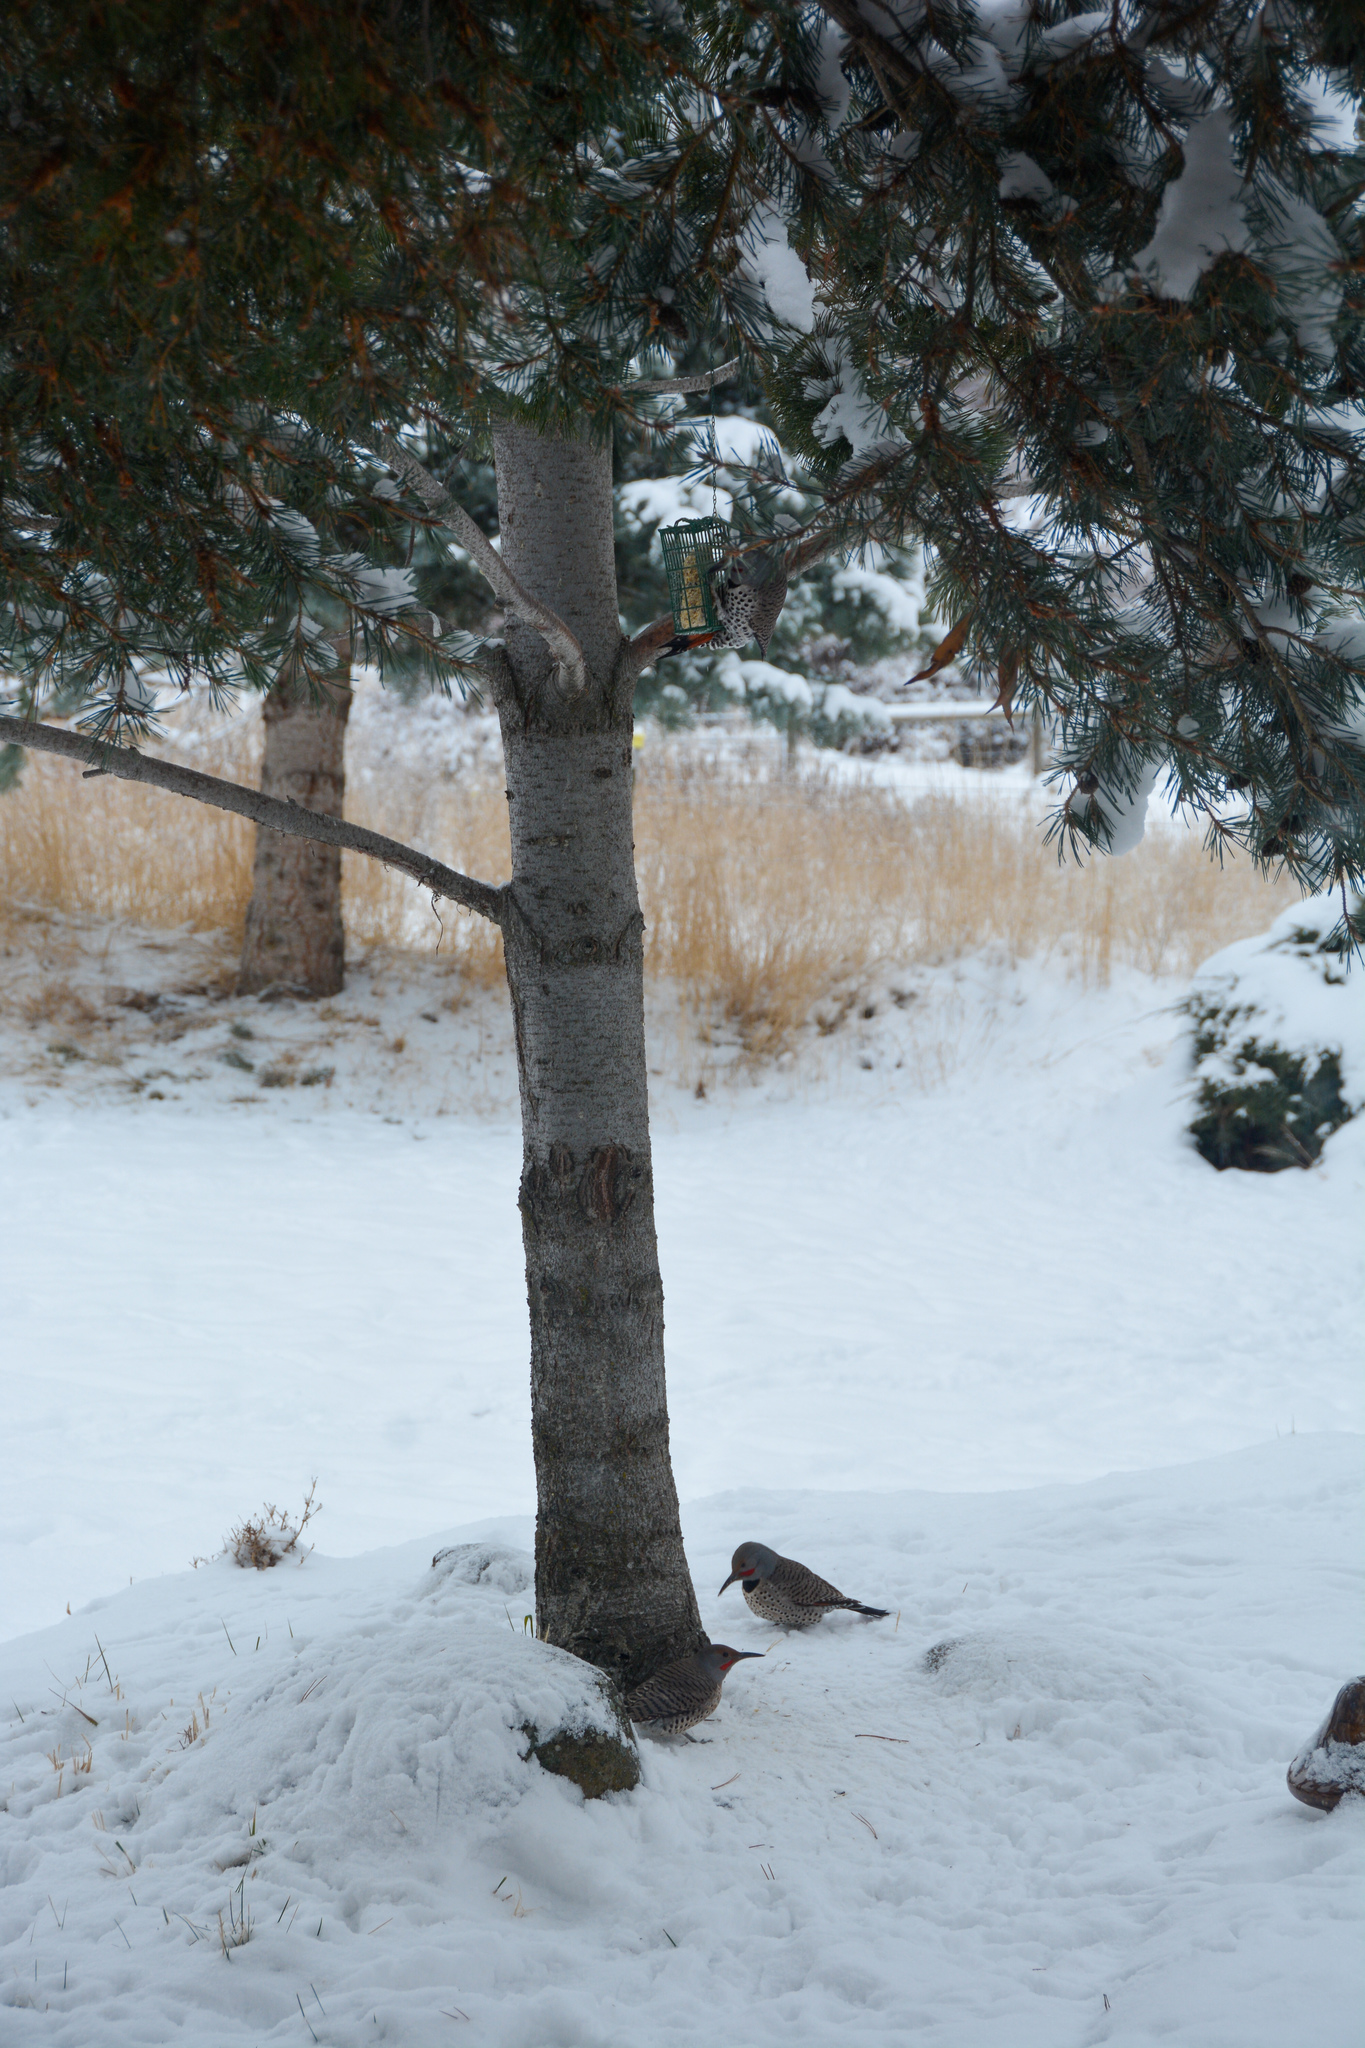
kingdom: Animalia
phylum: Chordata
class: Aves
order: Piciformes
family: Picidae
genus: Colaptes
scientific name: Colaptes auratus
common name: Northern flicker
